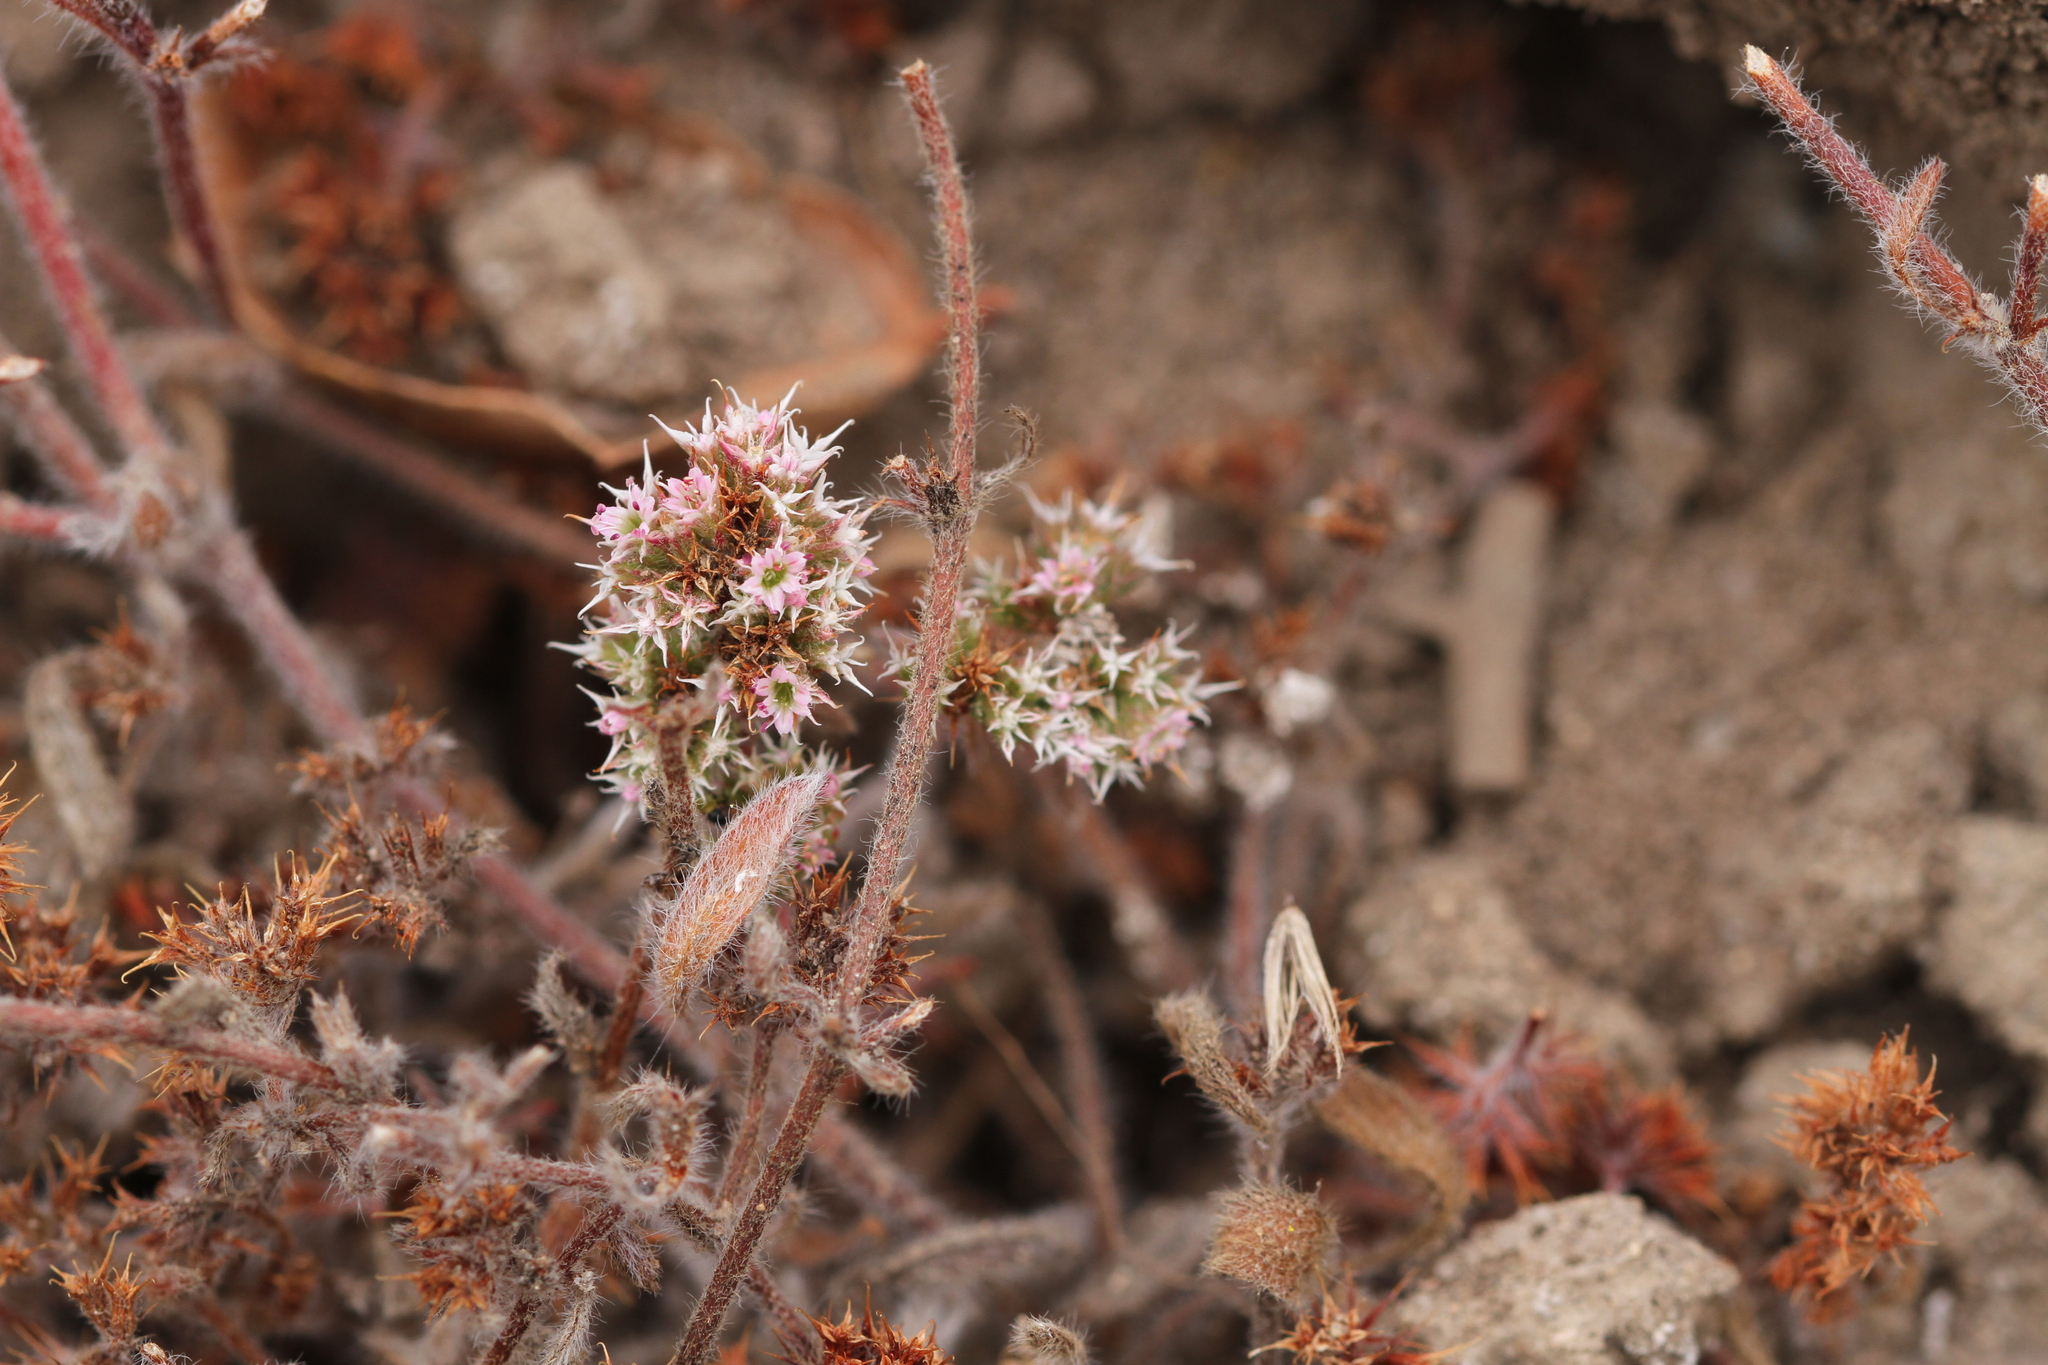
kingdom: Plantae
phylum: Tracheophyta
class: Magnoliopsida
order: Caryophyllales
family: Polygonaceae
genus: Chorizanthe
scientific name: Chorizanthe pungens
